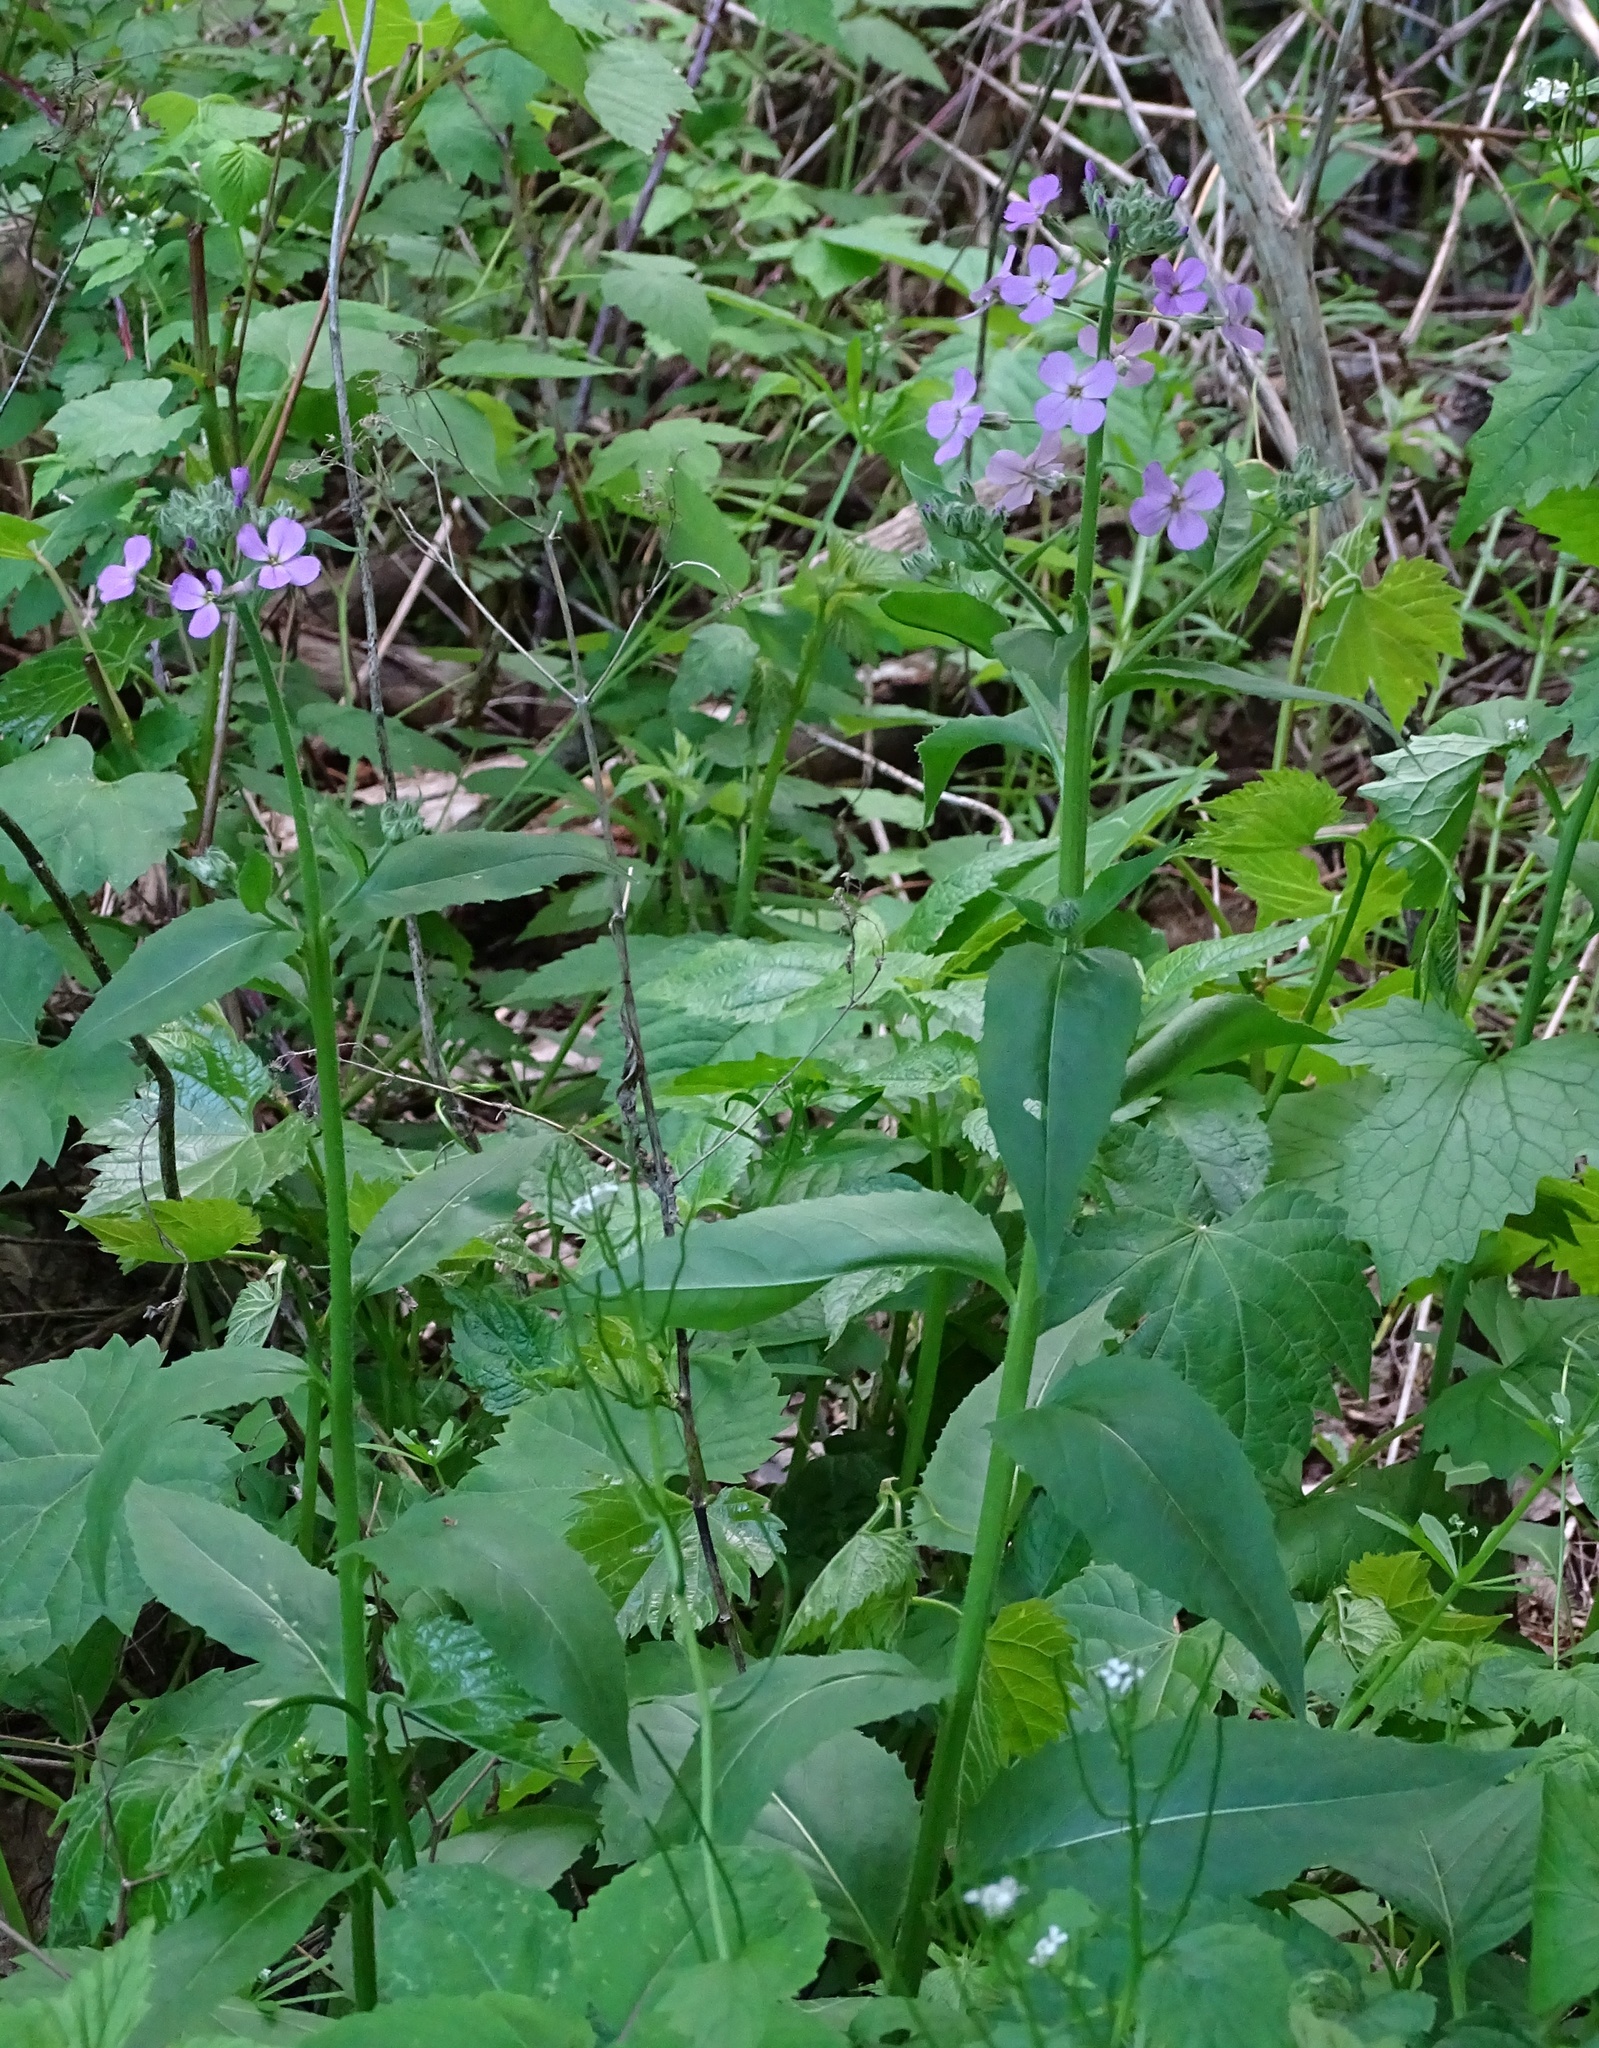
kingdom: Plantae
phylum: Tracheophyta
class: Magnoliopsida
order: Brassicales
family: Brassicaceae
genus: Hesperis
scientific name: Hesperis matronalis
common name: Dame's-violet
